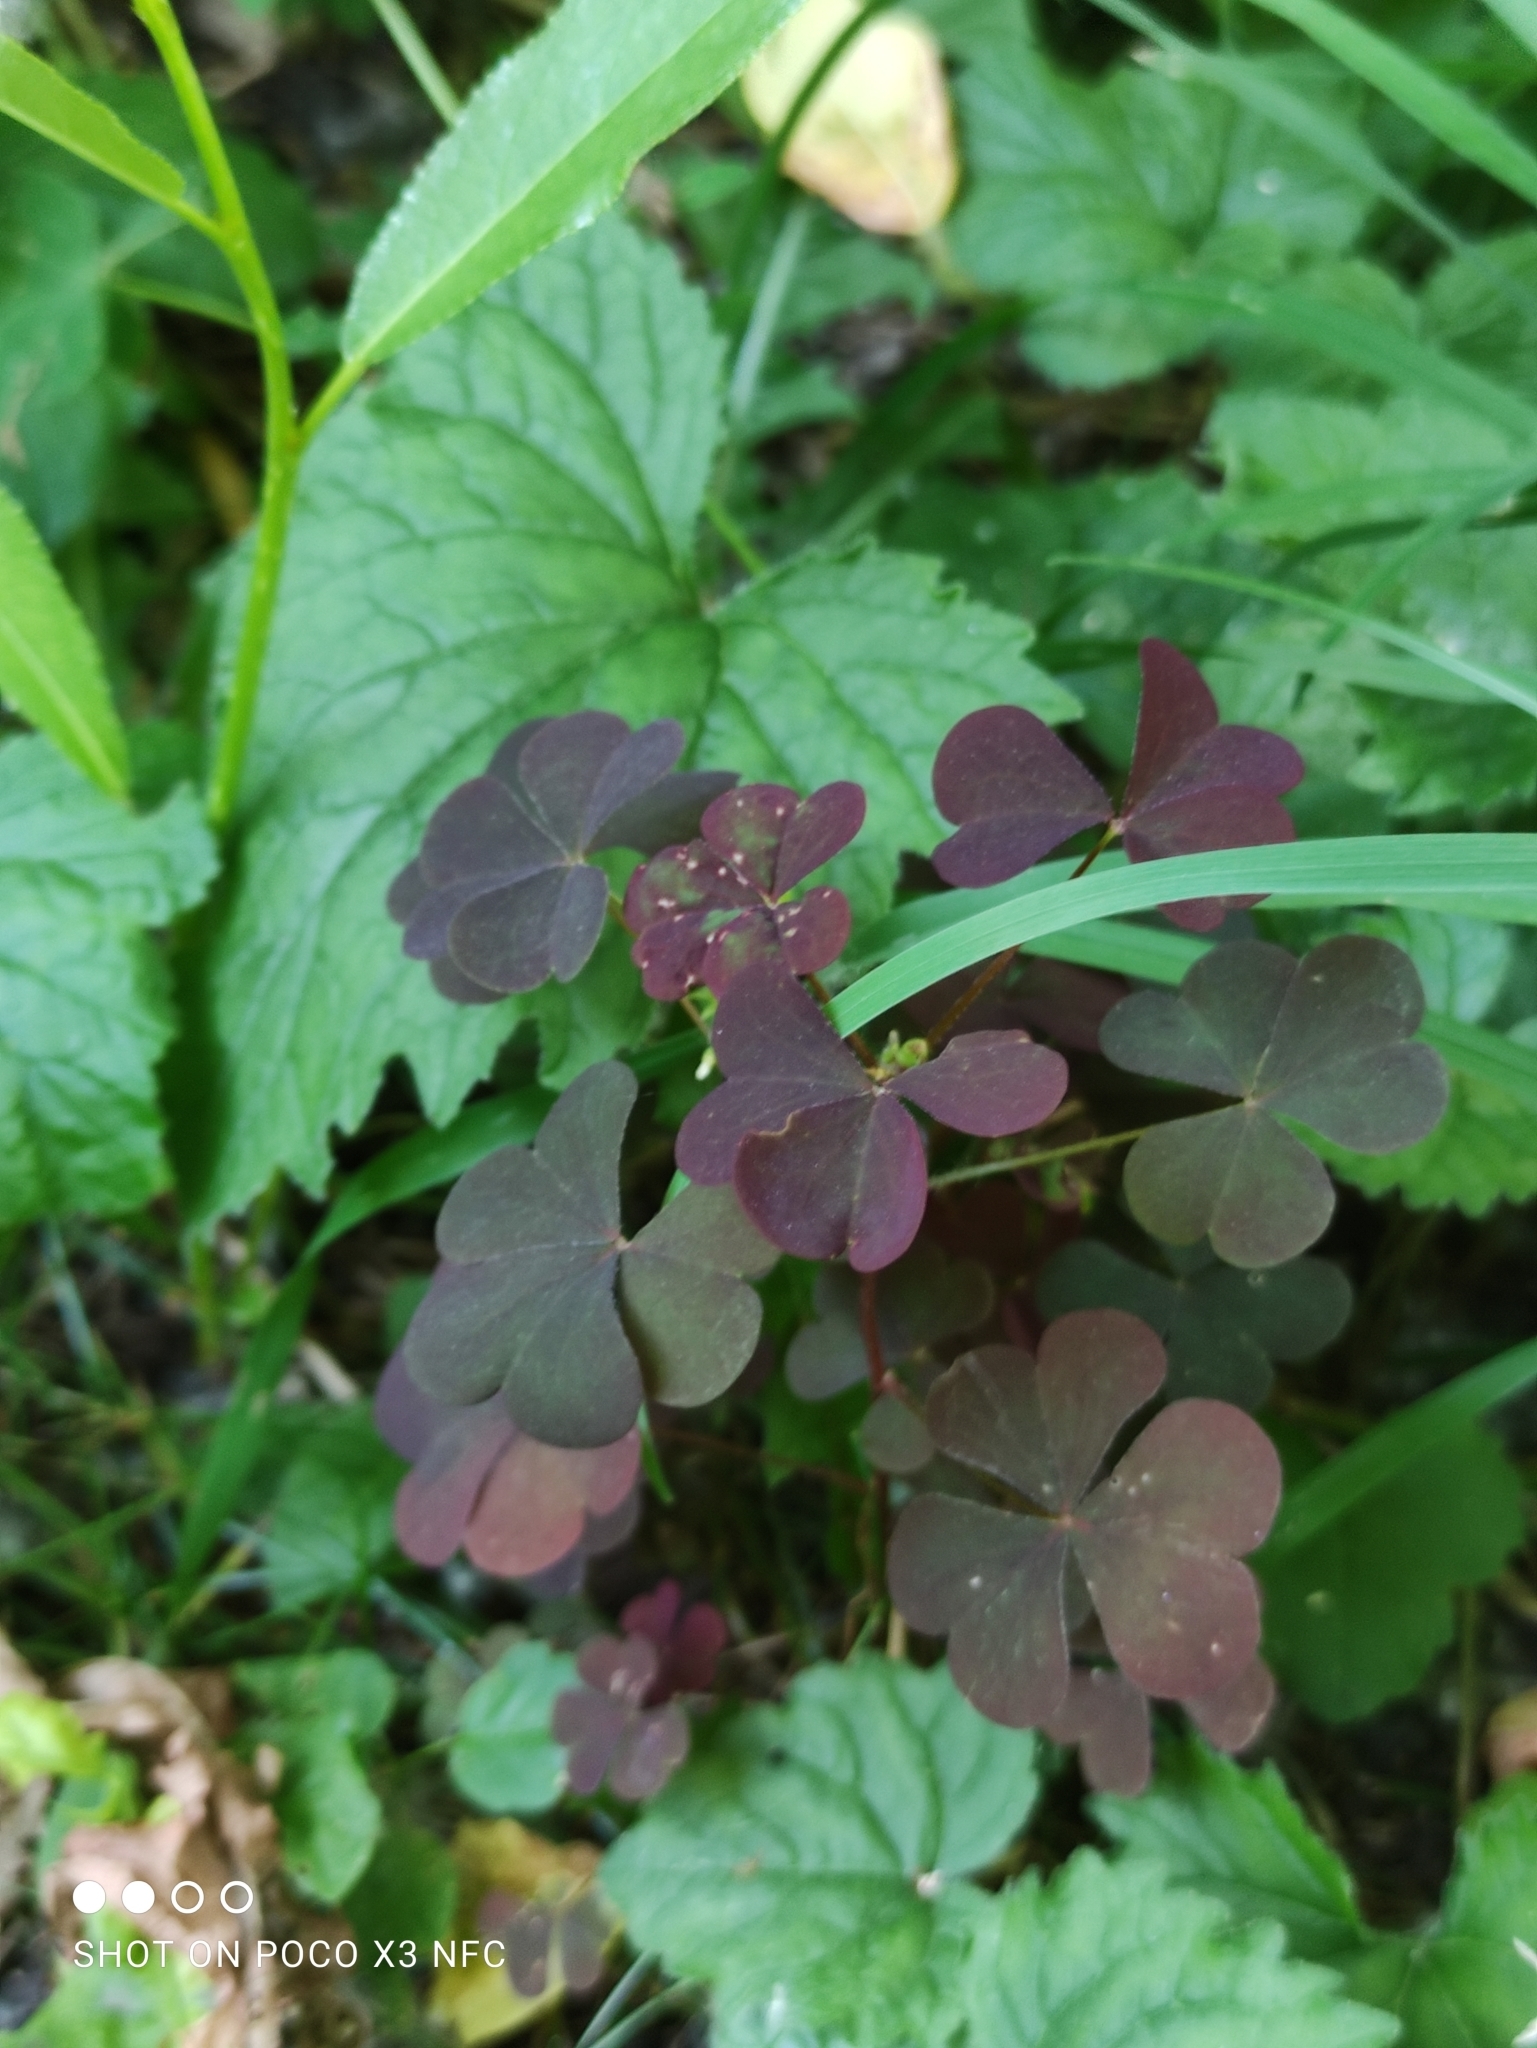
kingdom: Plantae
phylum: Tracheophyta
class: Magnoliopsida
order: Oxalidales
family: Oxalidaceae
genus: Oxalis
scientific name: Oxalis stricta
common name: Upright yellow-sorrel
